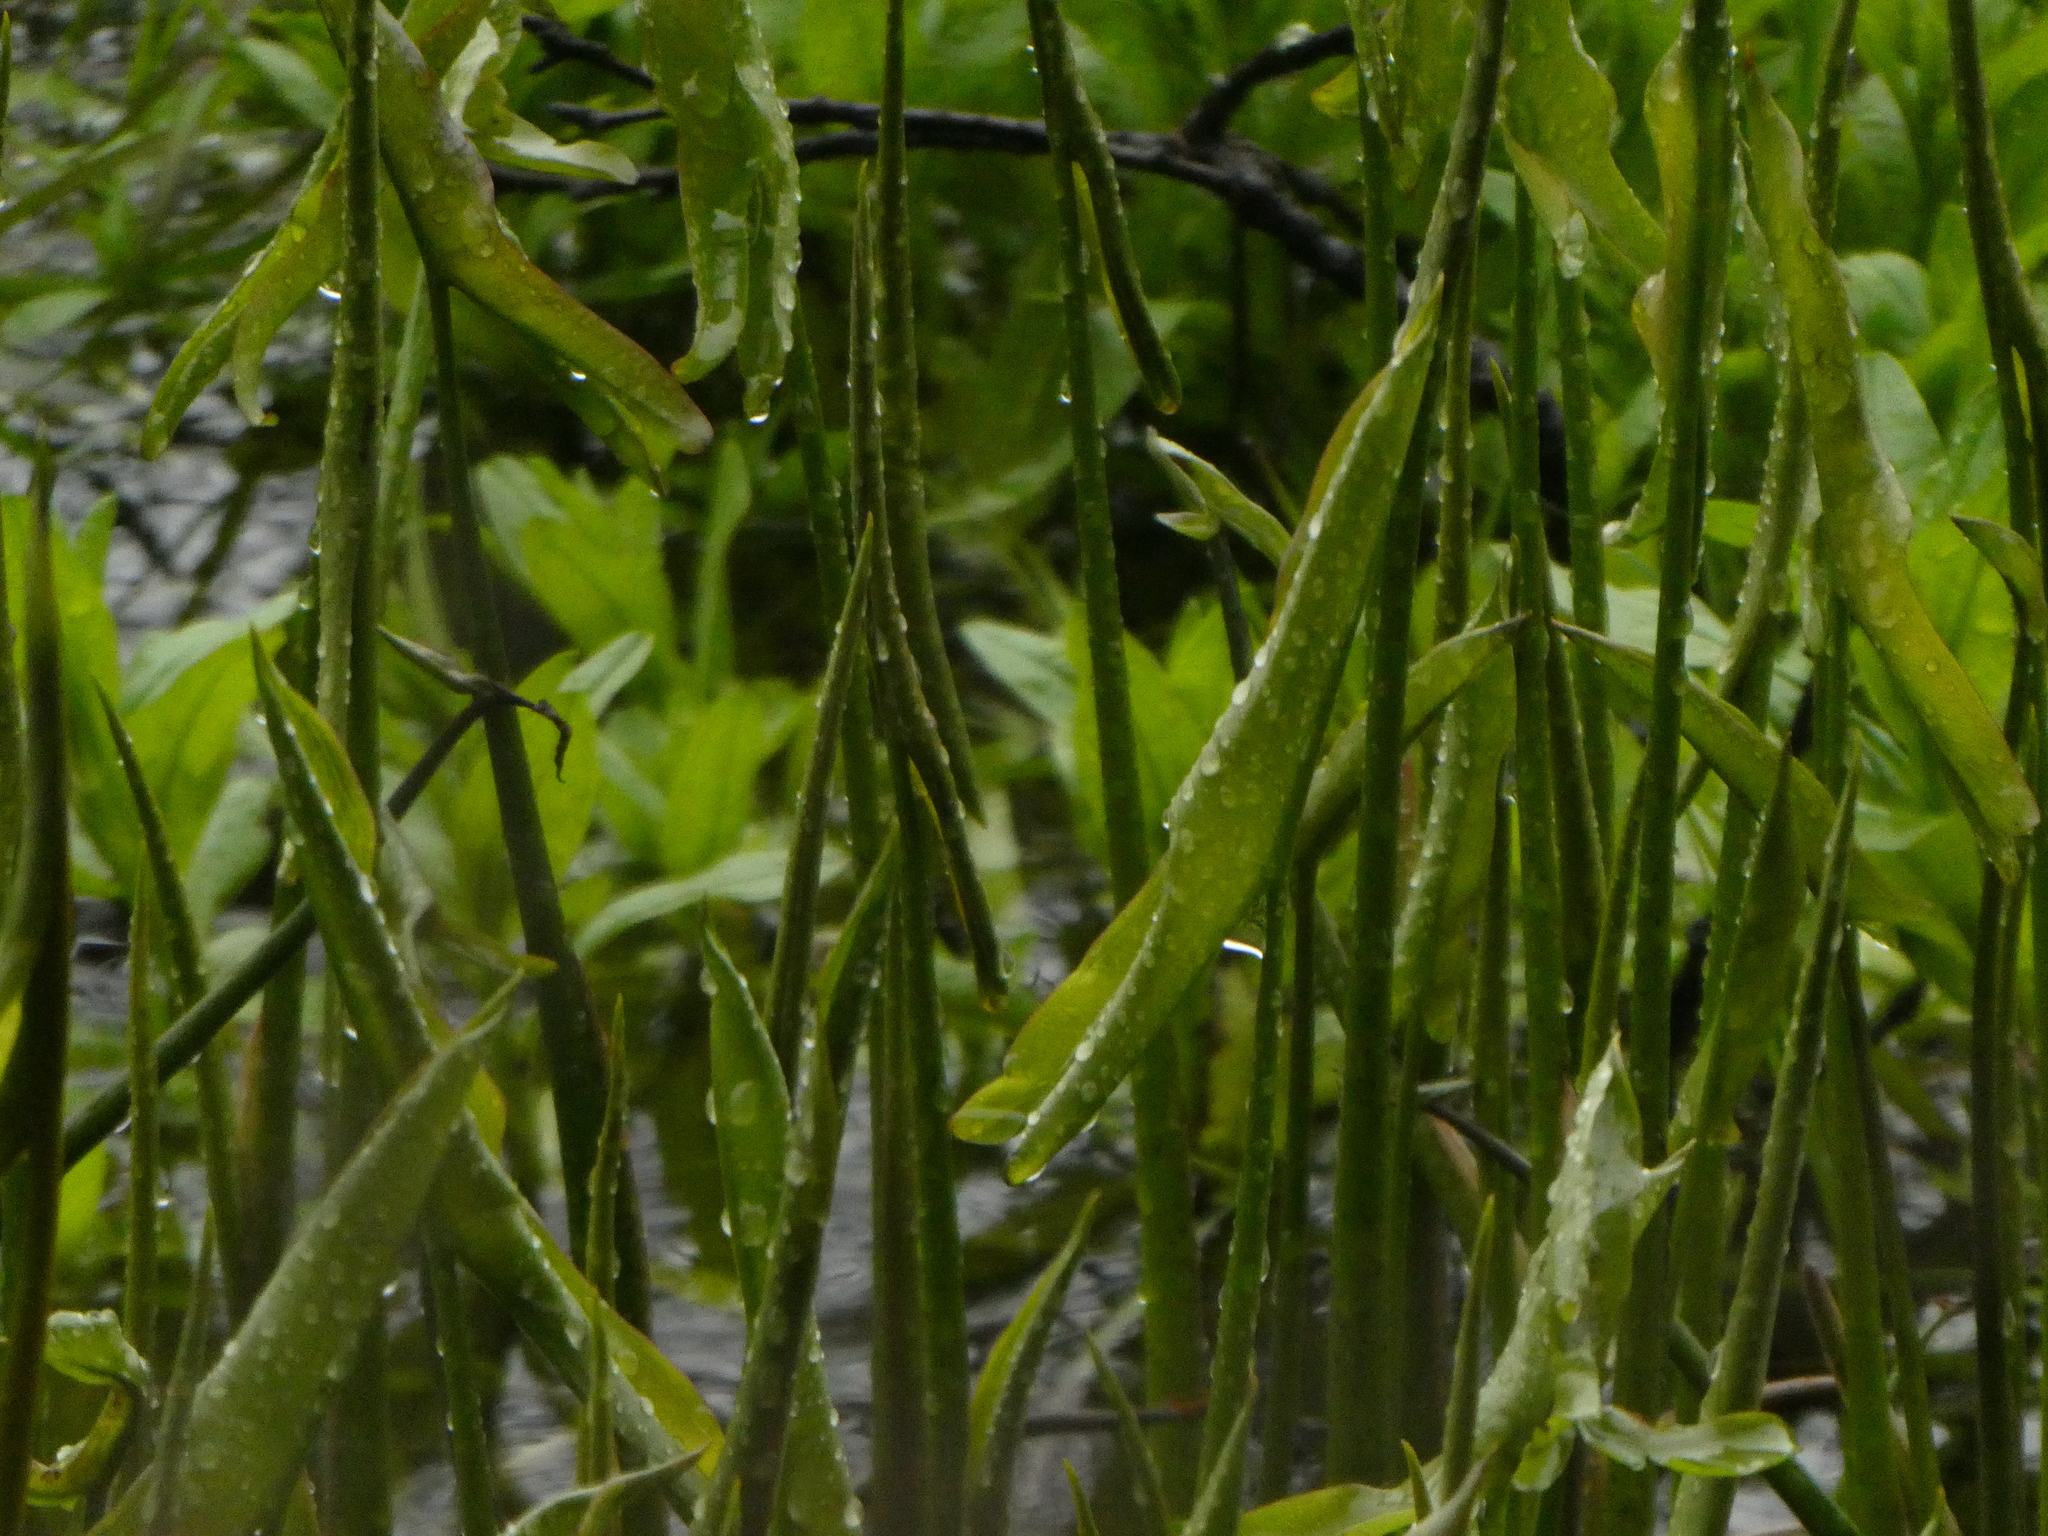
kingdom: Plantae
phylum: Tracheophyta
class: Liliopsida
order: Alismatales
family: Araceae
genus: Peltandra
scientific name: Peltandra virginica
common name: Arrow arum
